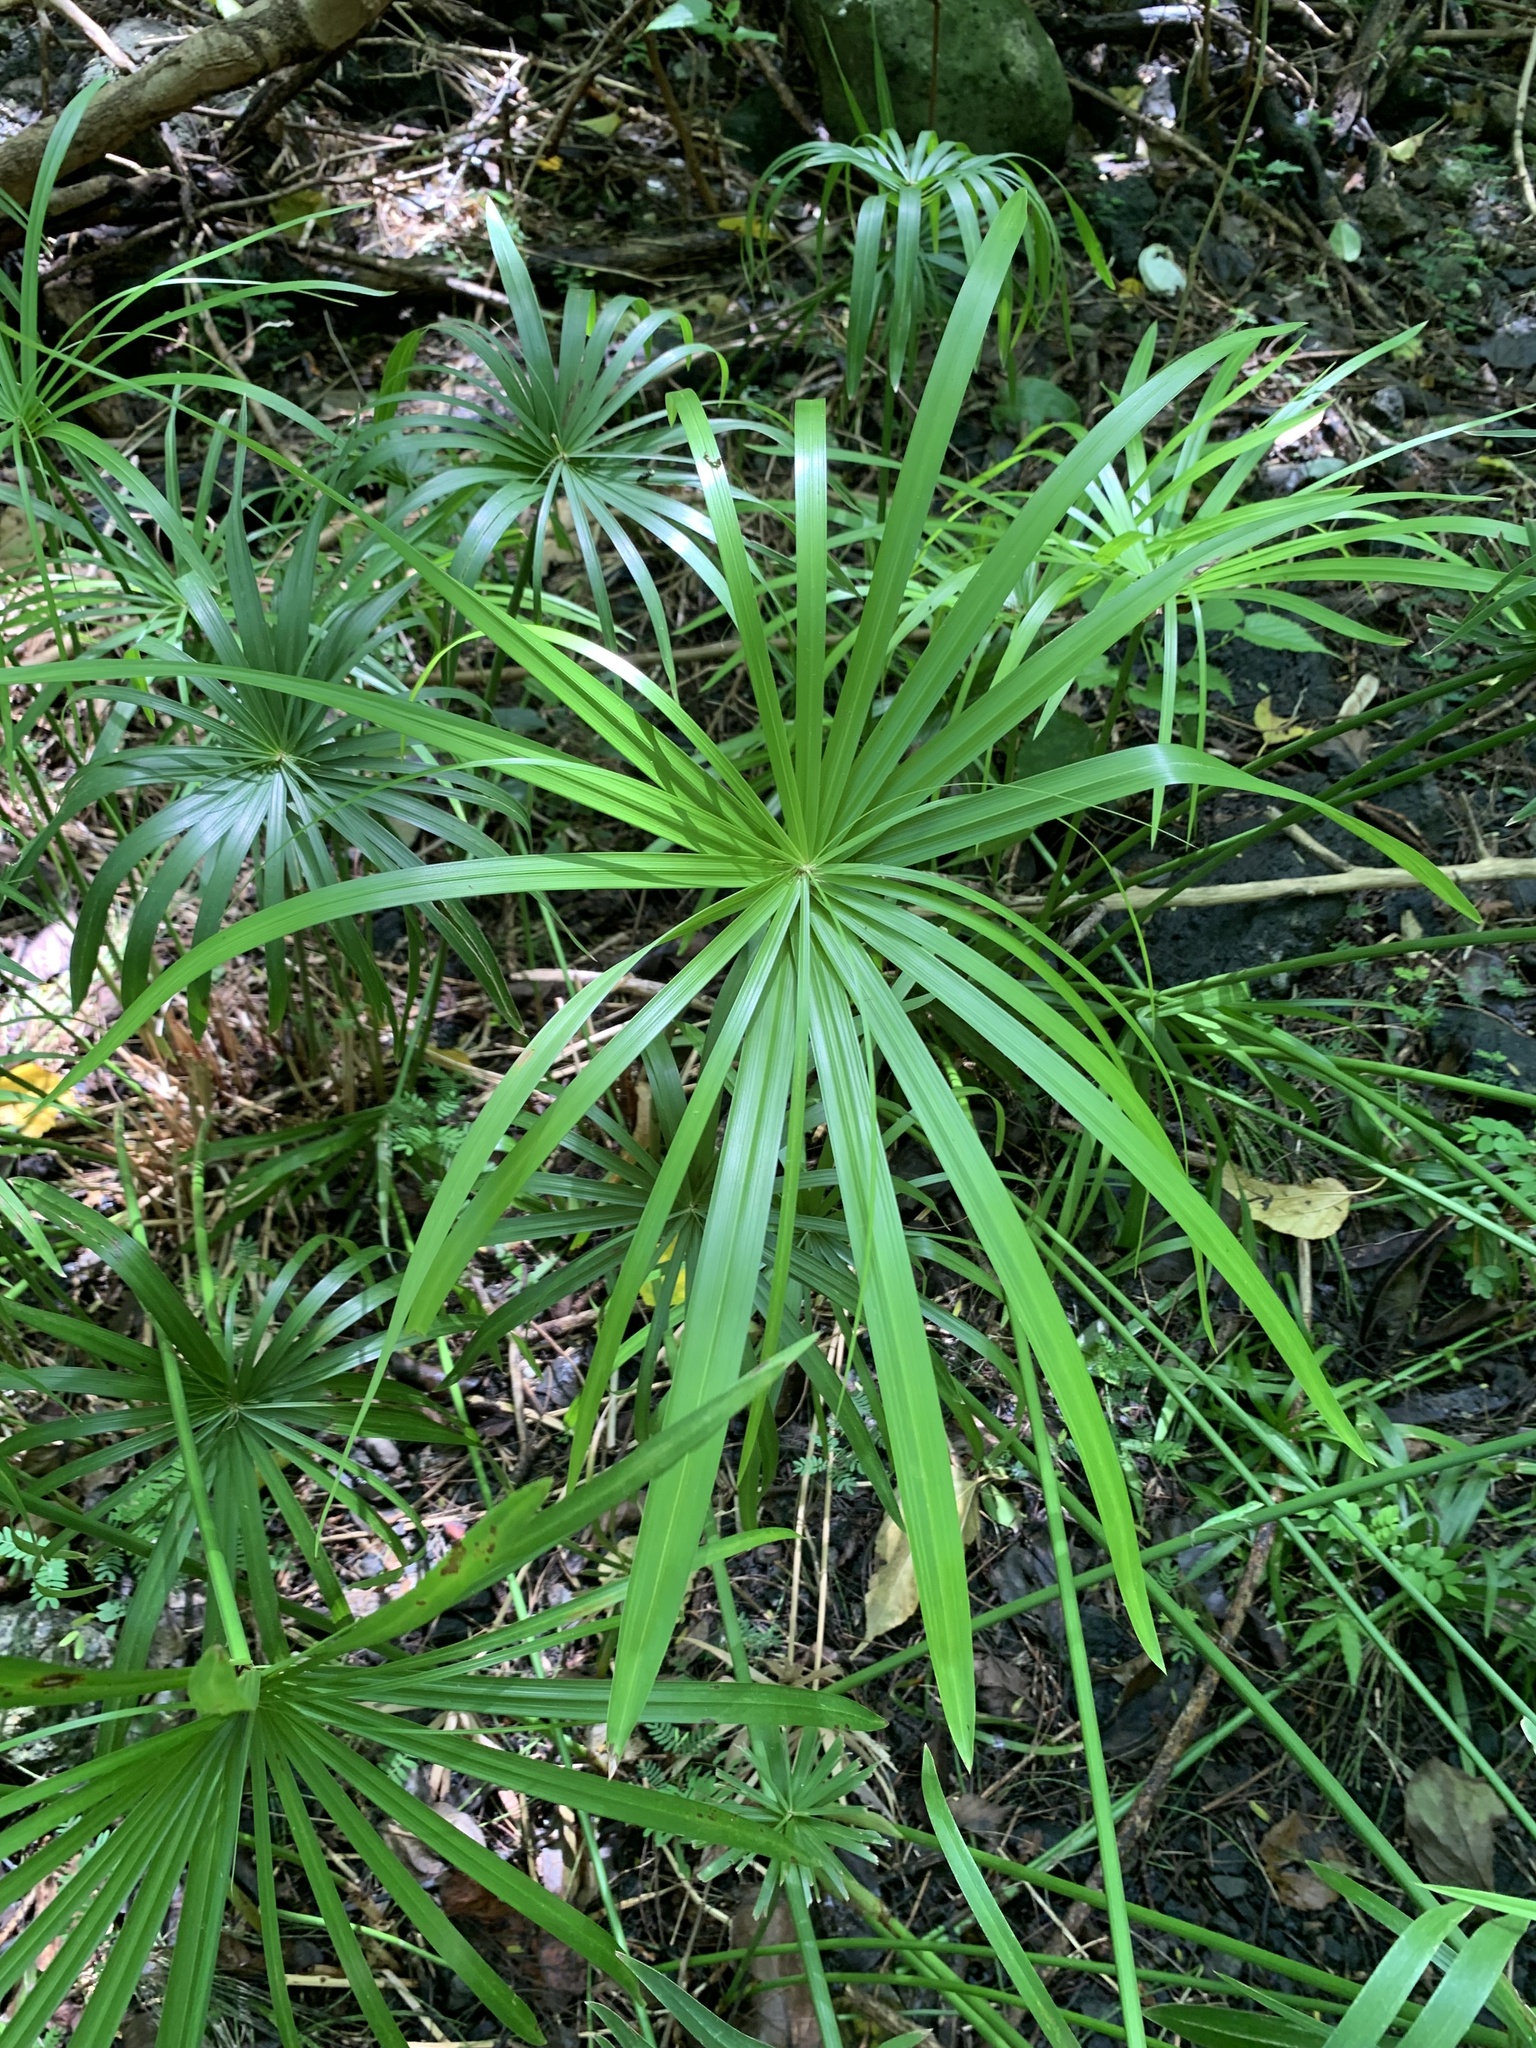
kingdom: Plantae
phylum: Tracheophyta
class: Liliopsida
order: Poales
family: Cyperaceae
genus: Cyperus
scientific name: Cyperus alternifolius
